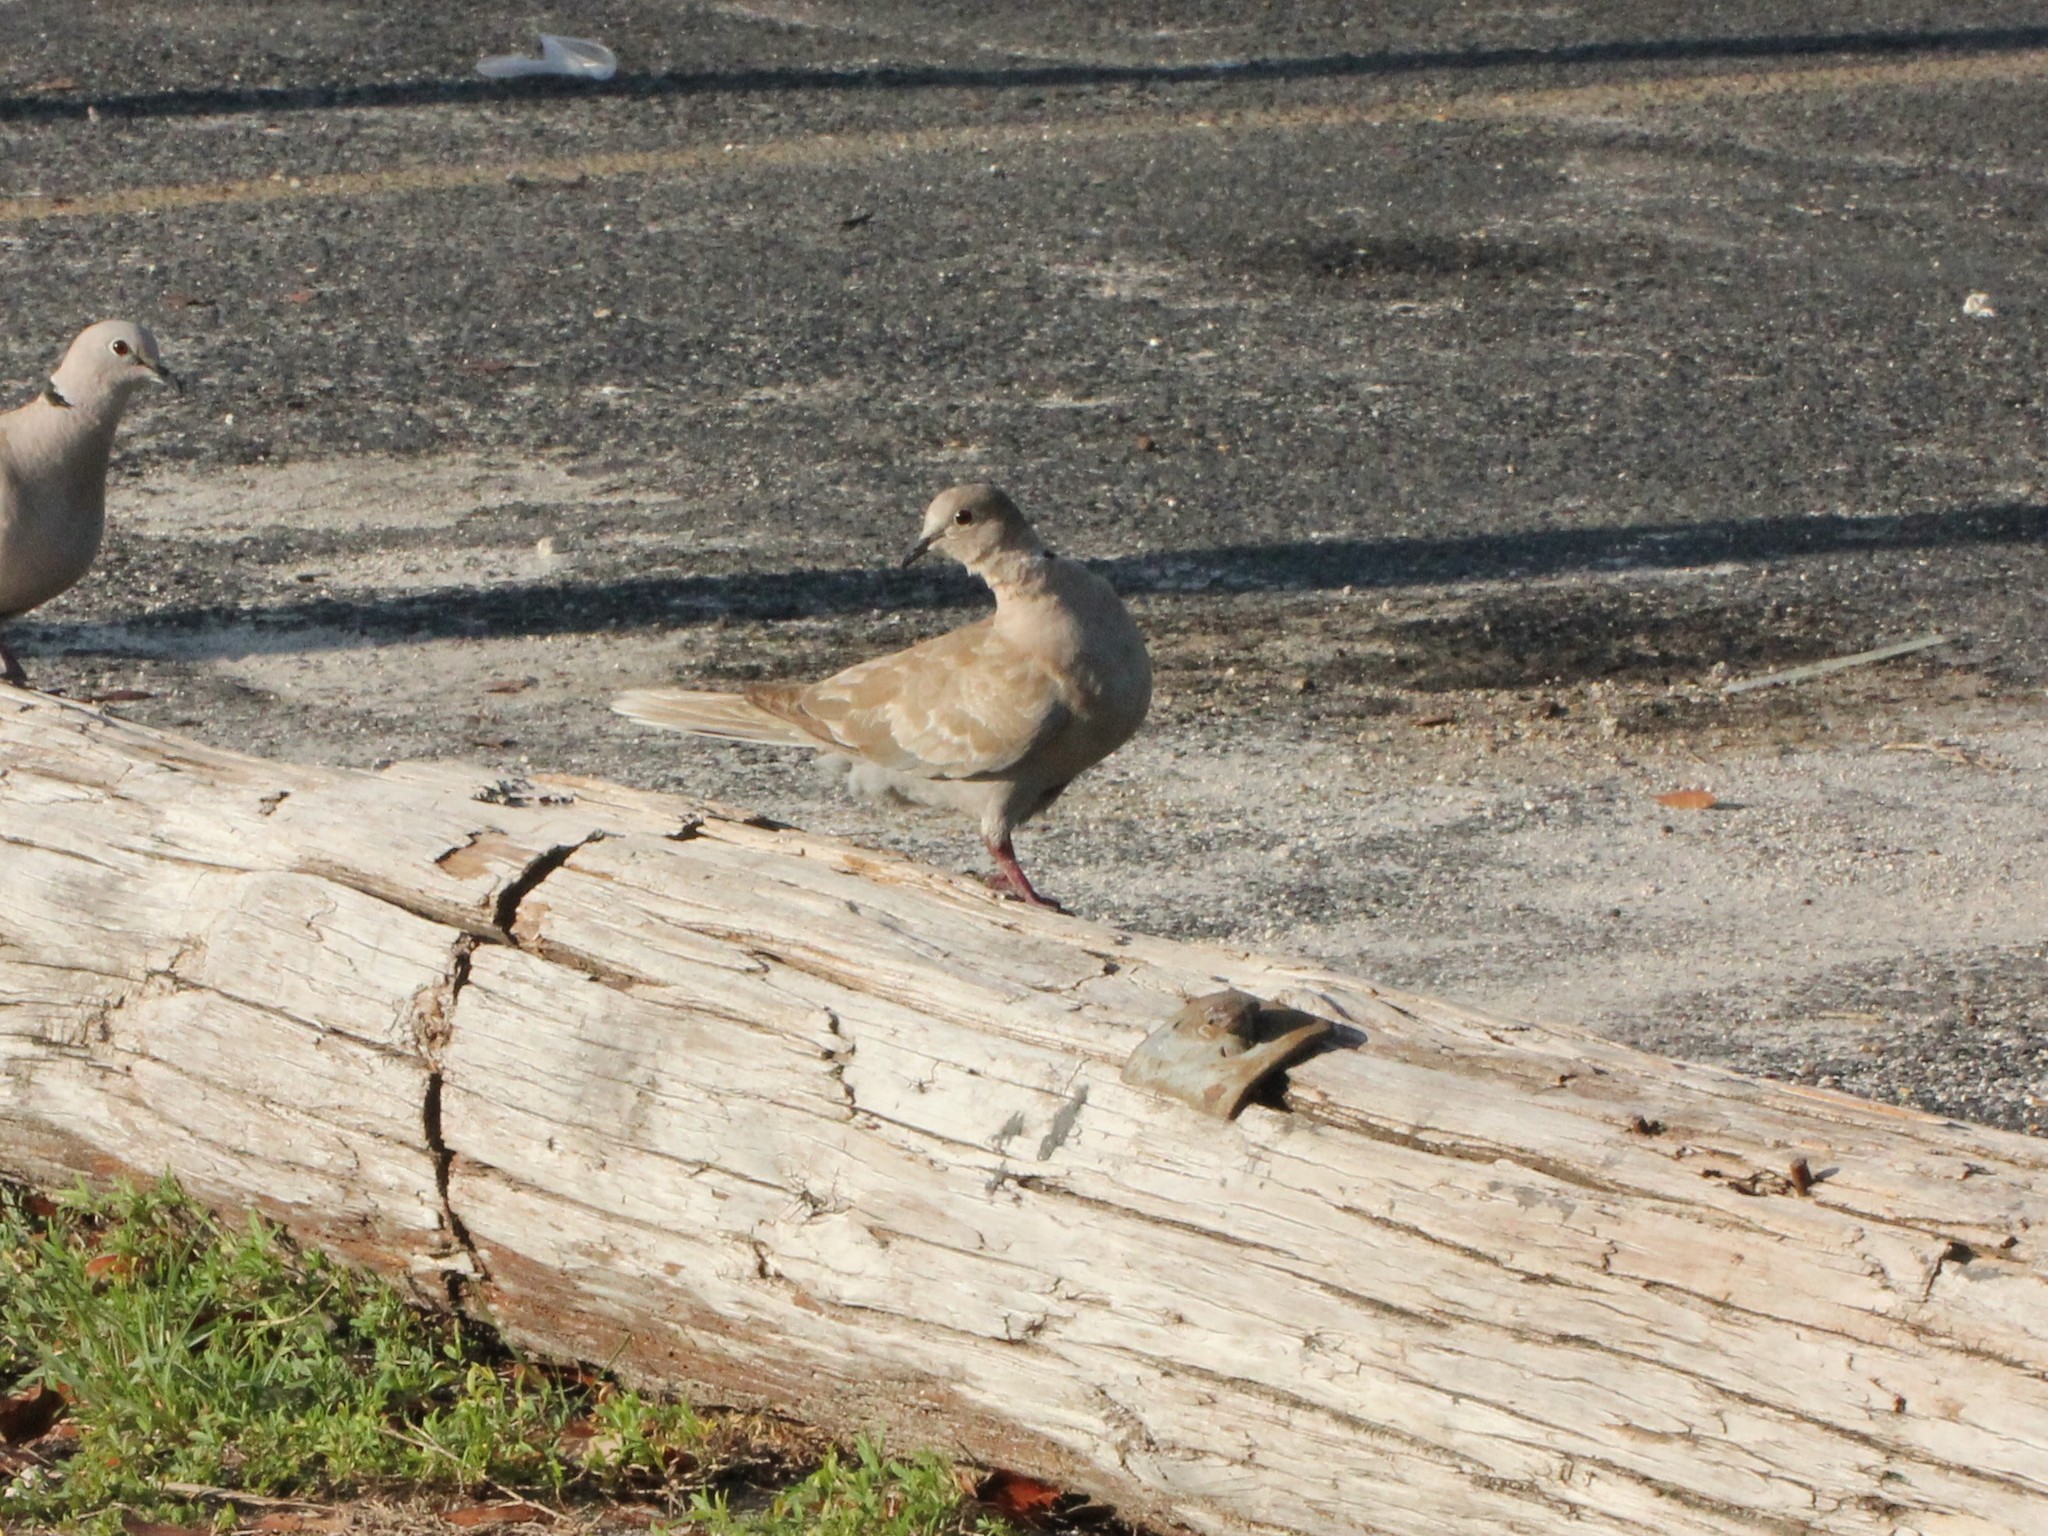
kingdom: Animalia
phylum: Chordata
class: Aves
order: Columbiformes
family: Columbidae
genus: Streptopelia
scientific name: Streptopelia decaocto
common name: Eurasian collared dove
